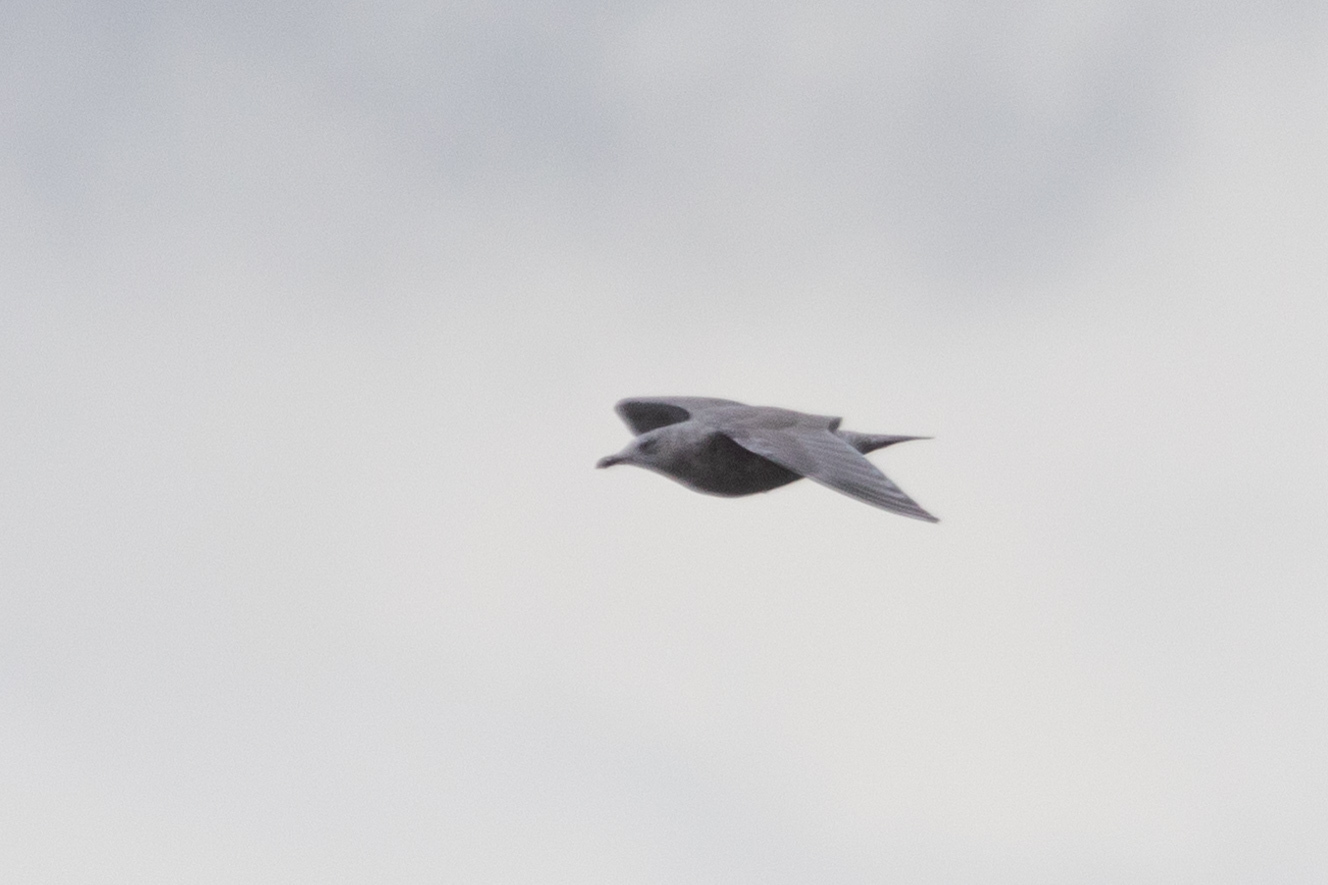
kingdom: Animalia
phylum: Chordata
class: Aves
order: Charadriiformes
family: Laridae
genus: Larus
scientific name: Larus glaucoides
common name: Iceland gull
